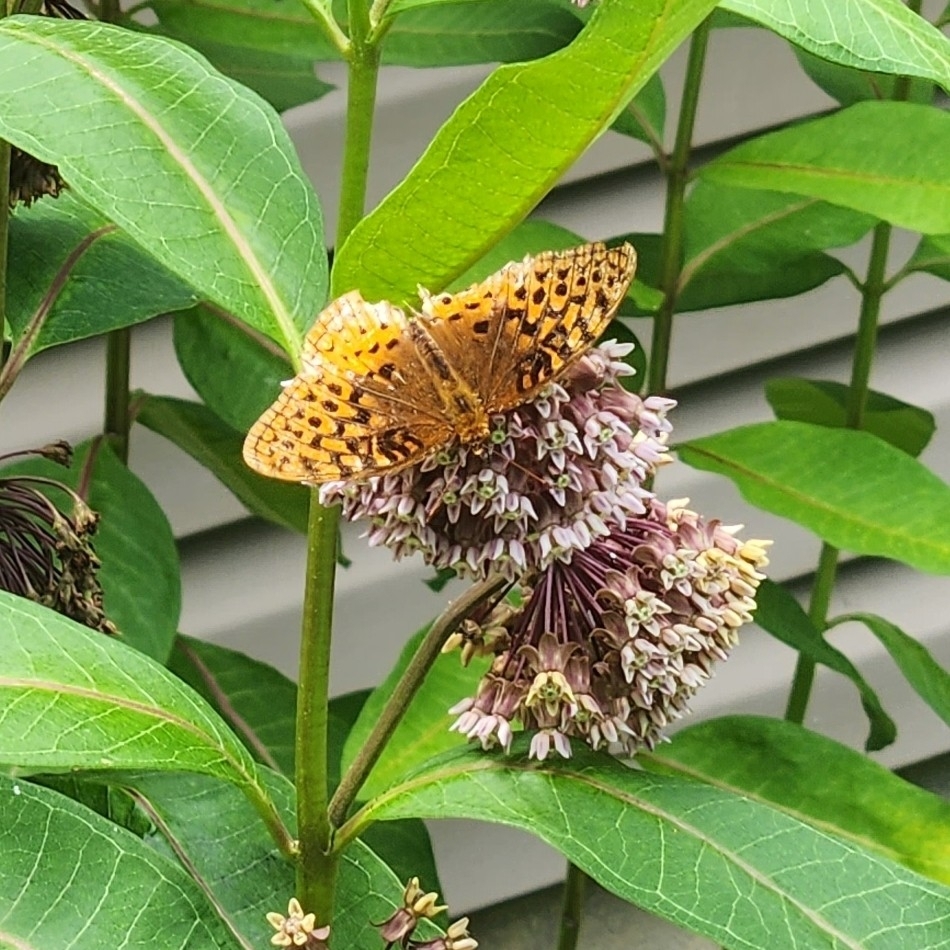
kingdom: Animalia
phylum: Arthropoda
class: Insecta
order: Lepidoptera
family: Nymphalidae
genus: Speyeria
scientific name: Speyeria cybele
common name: Great spangled fritillary
